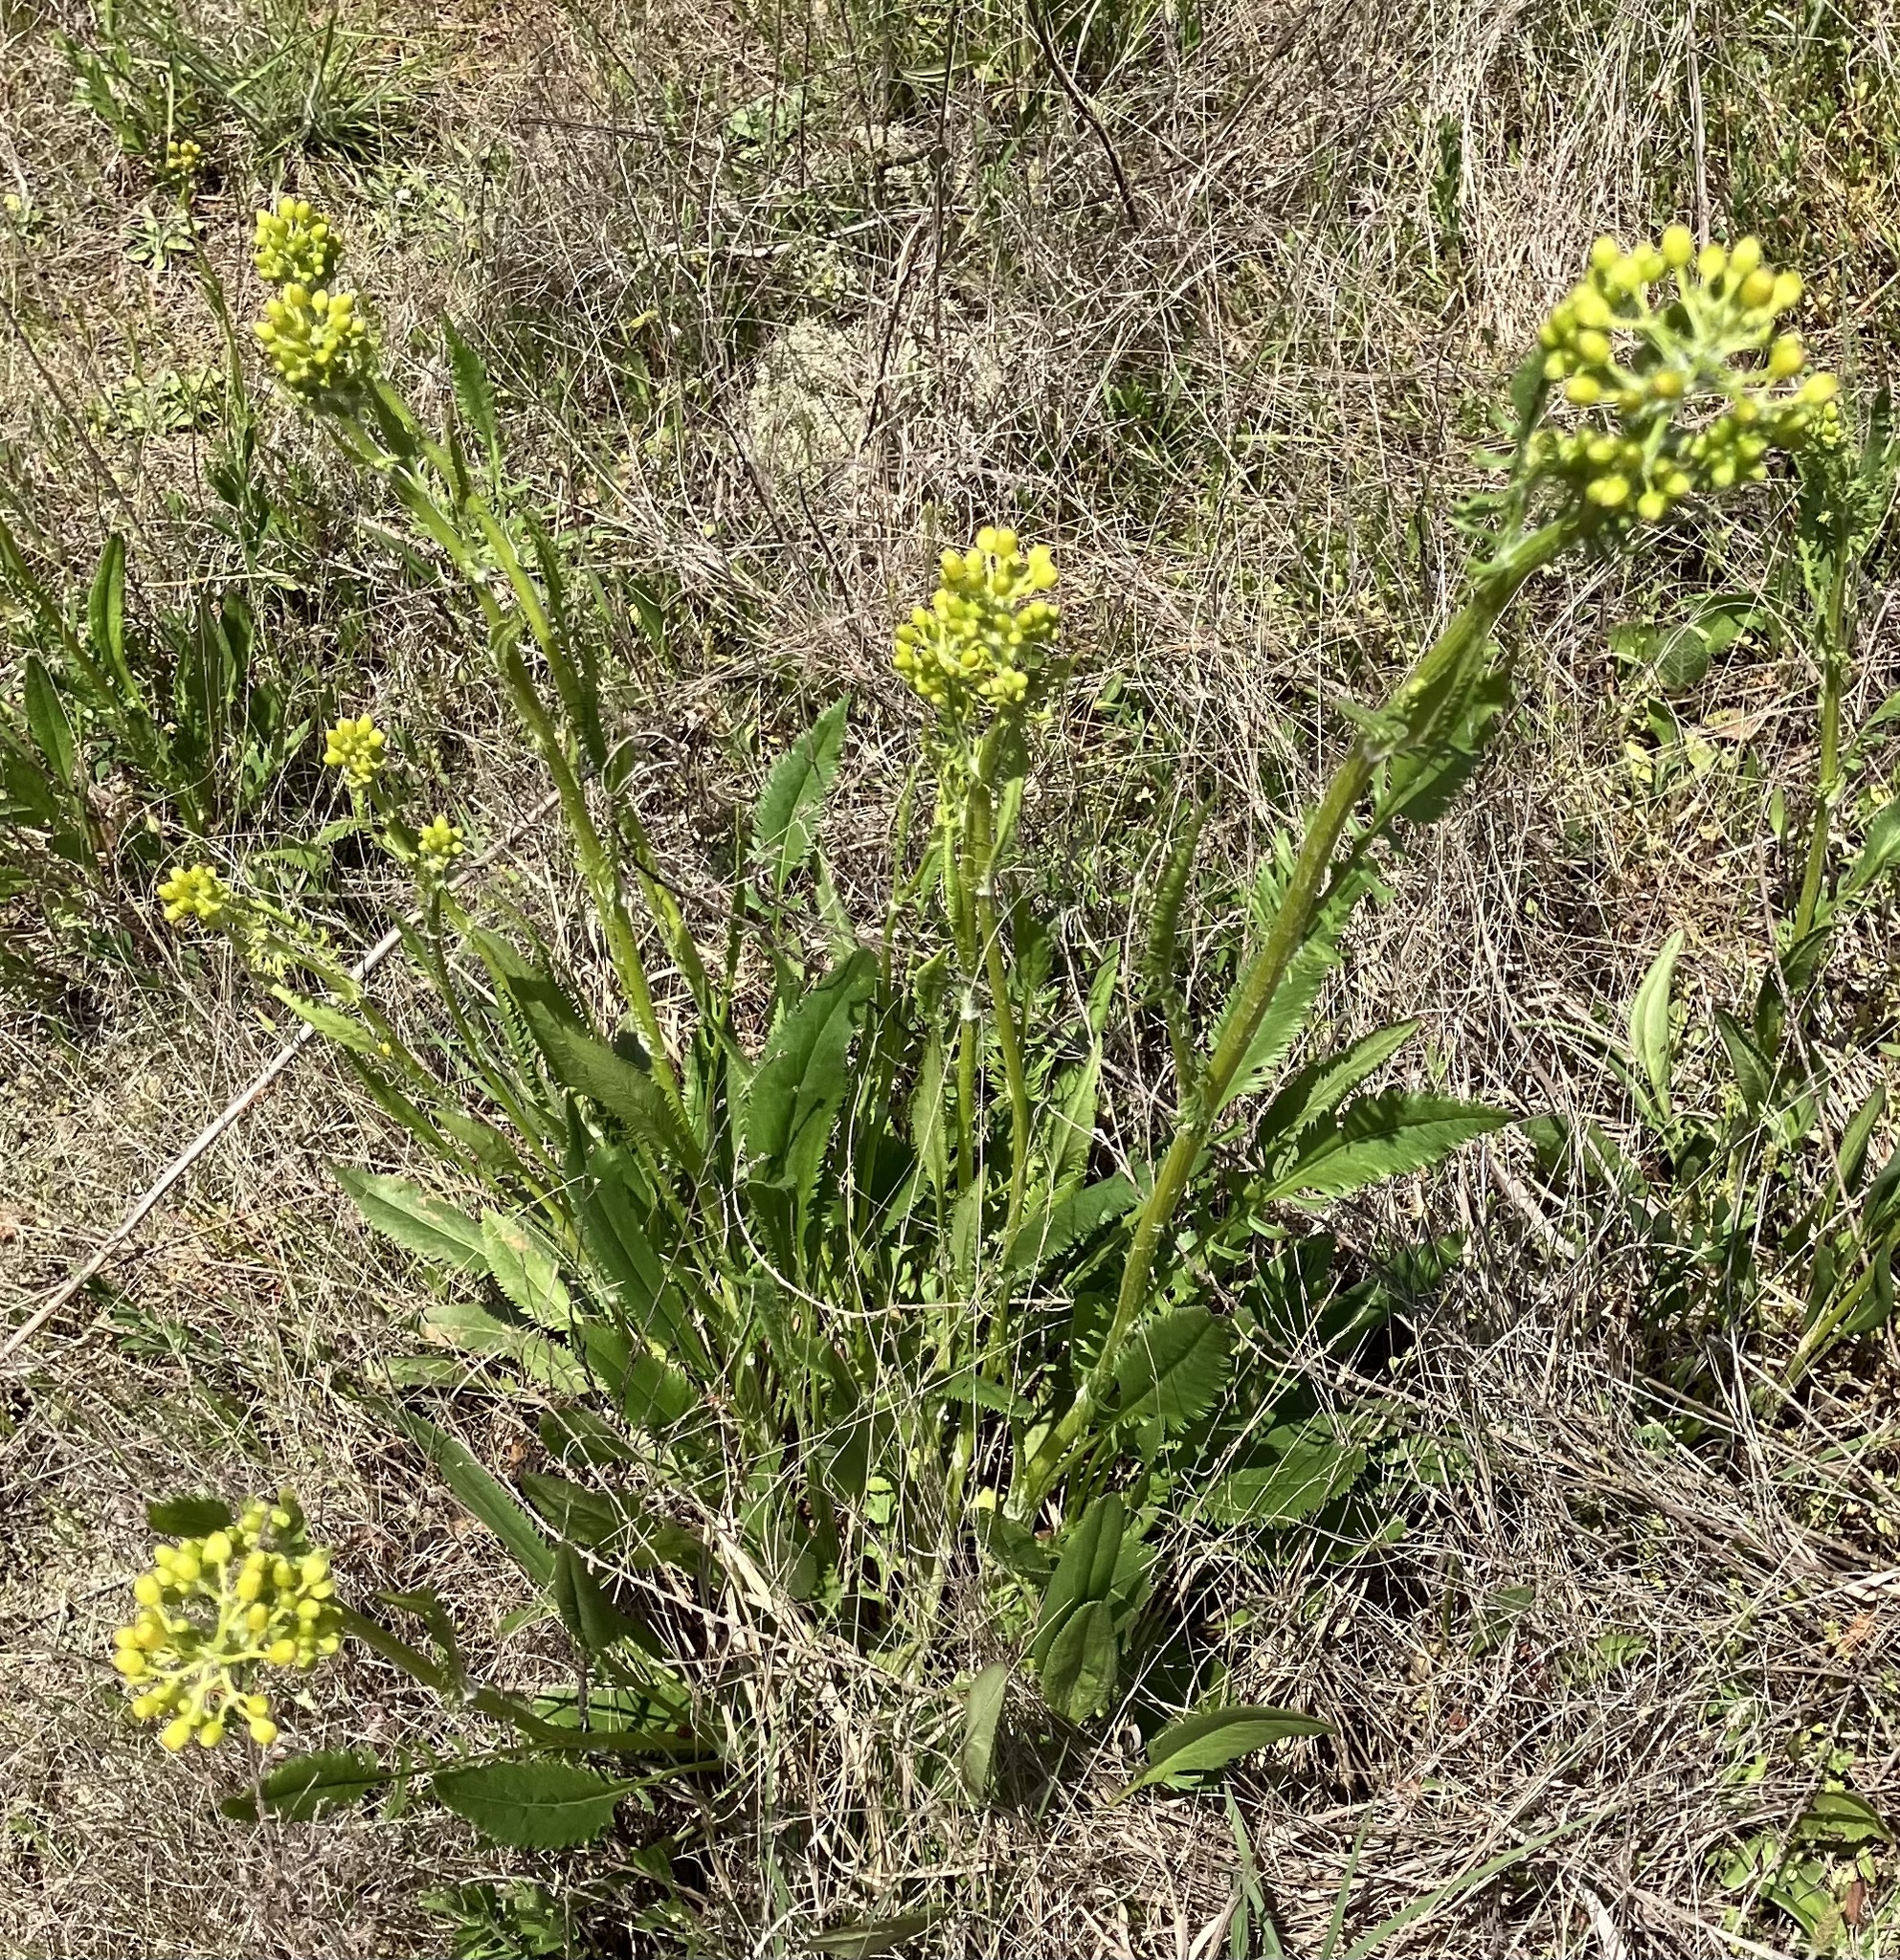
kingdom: Plantae
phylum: Tracheophyta
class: Magnoliopsida
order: Asterales
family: Asteraceae
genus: Packera
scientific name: Packera anonyma
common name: Small ragwort
